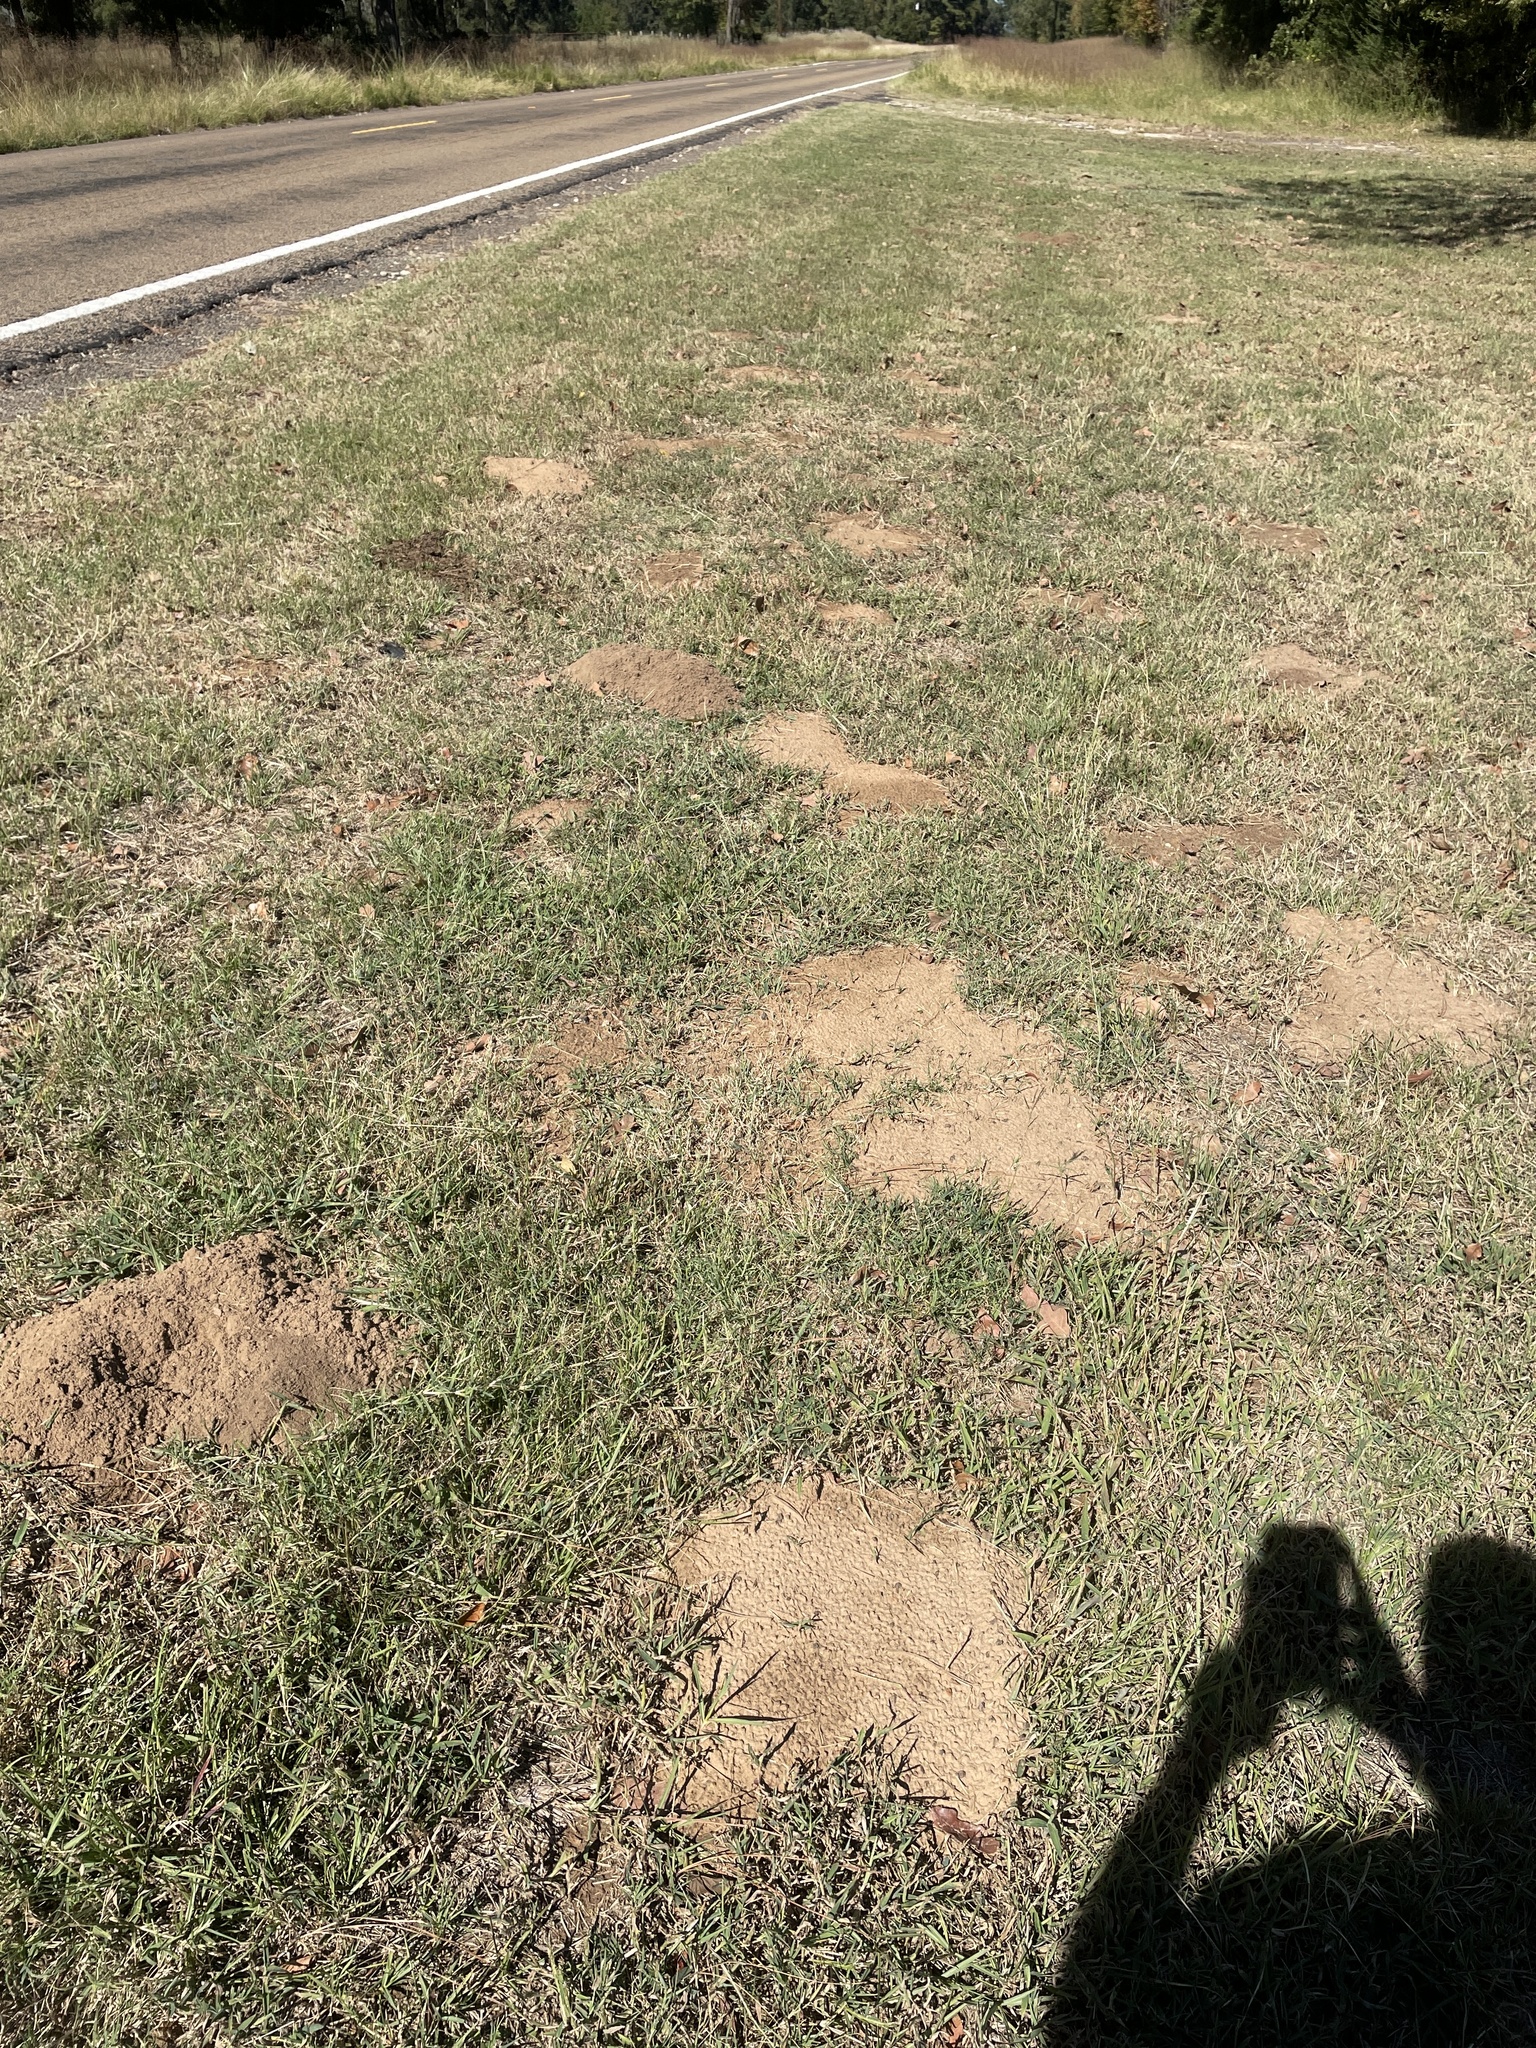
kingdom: Animalia
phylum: Chordata
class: Mammalia
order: Rodentia
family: Geomyidae
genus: Geomys
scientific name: Geomys breviceps
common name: Baird's pocket gopher
